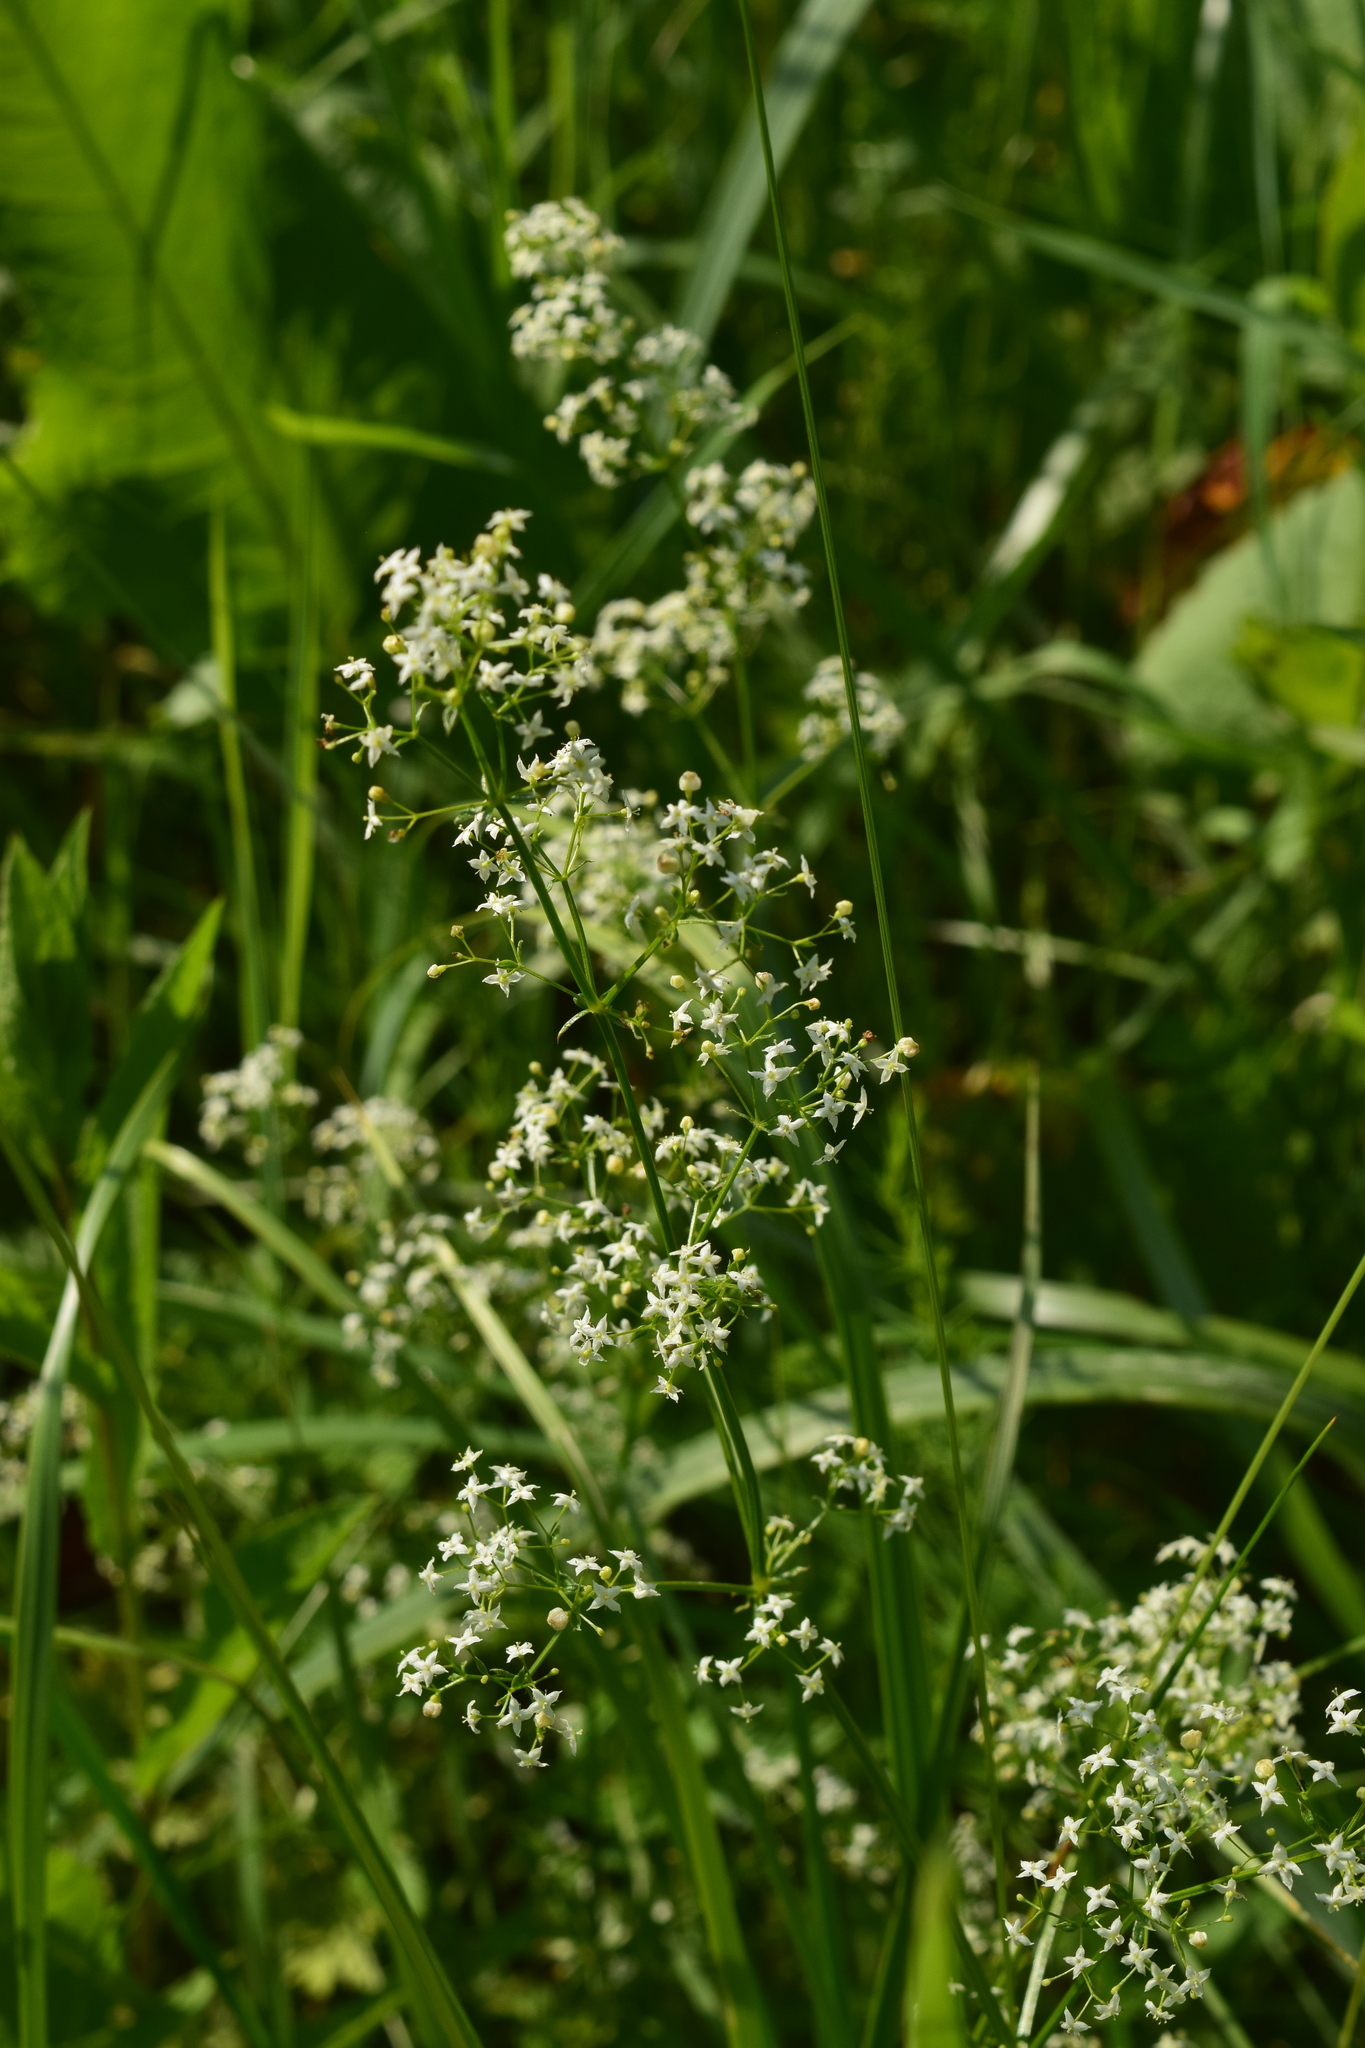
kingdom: Plantae
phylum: Tracheophyta
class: Magnoliopsida
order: Gentianales
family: Rubiaceae
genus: Galium
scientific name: Galium mollugo
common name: Hedge bedstraw
